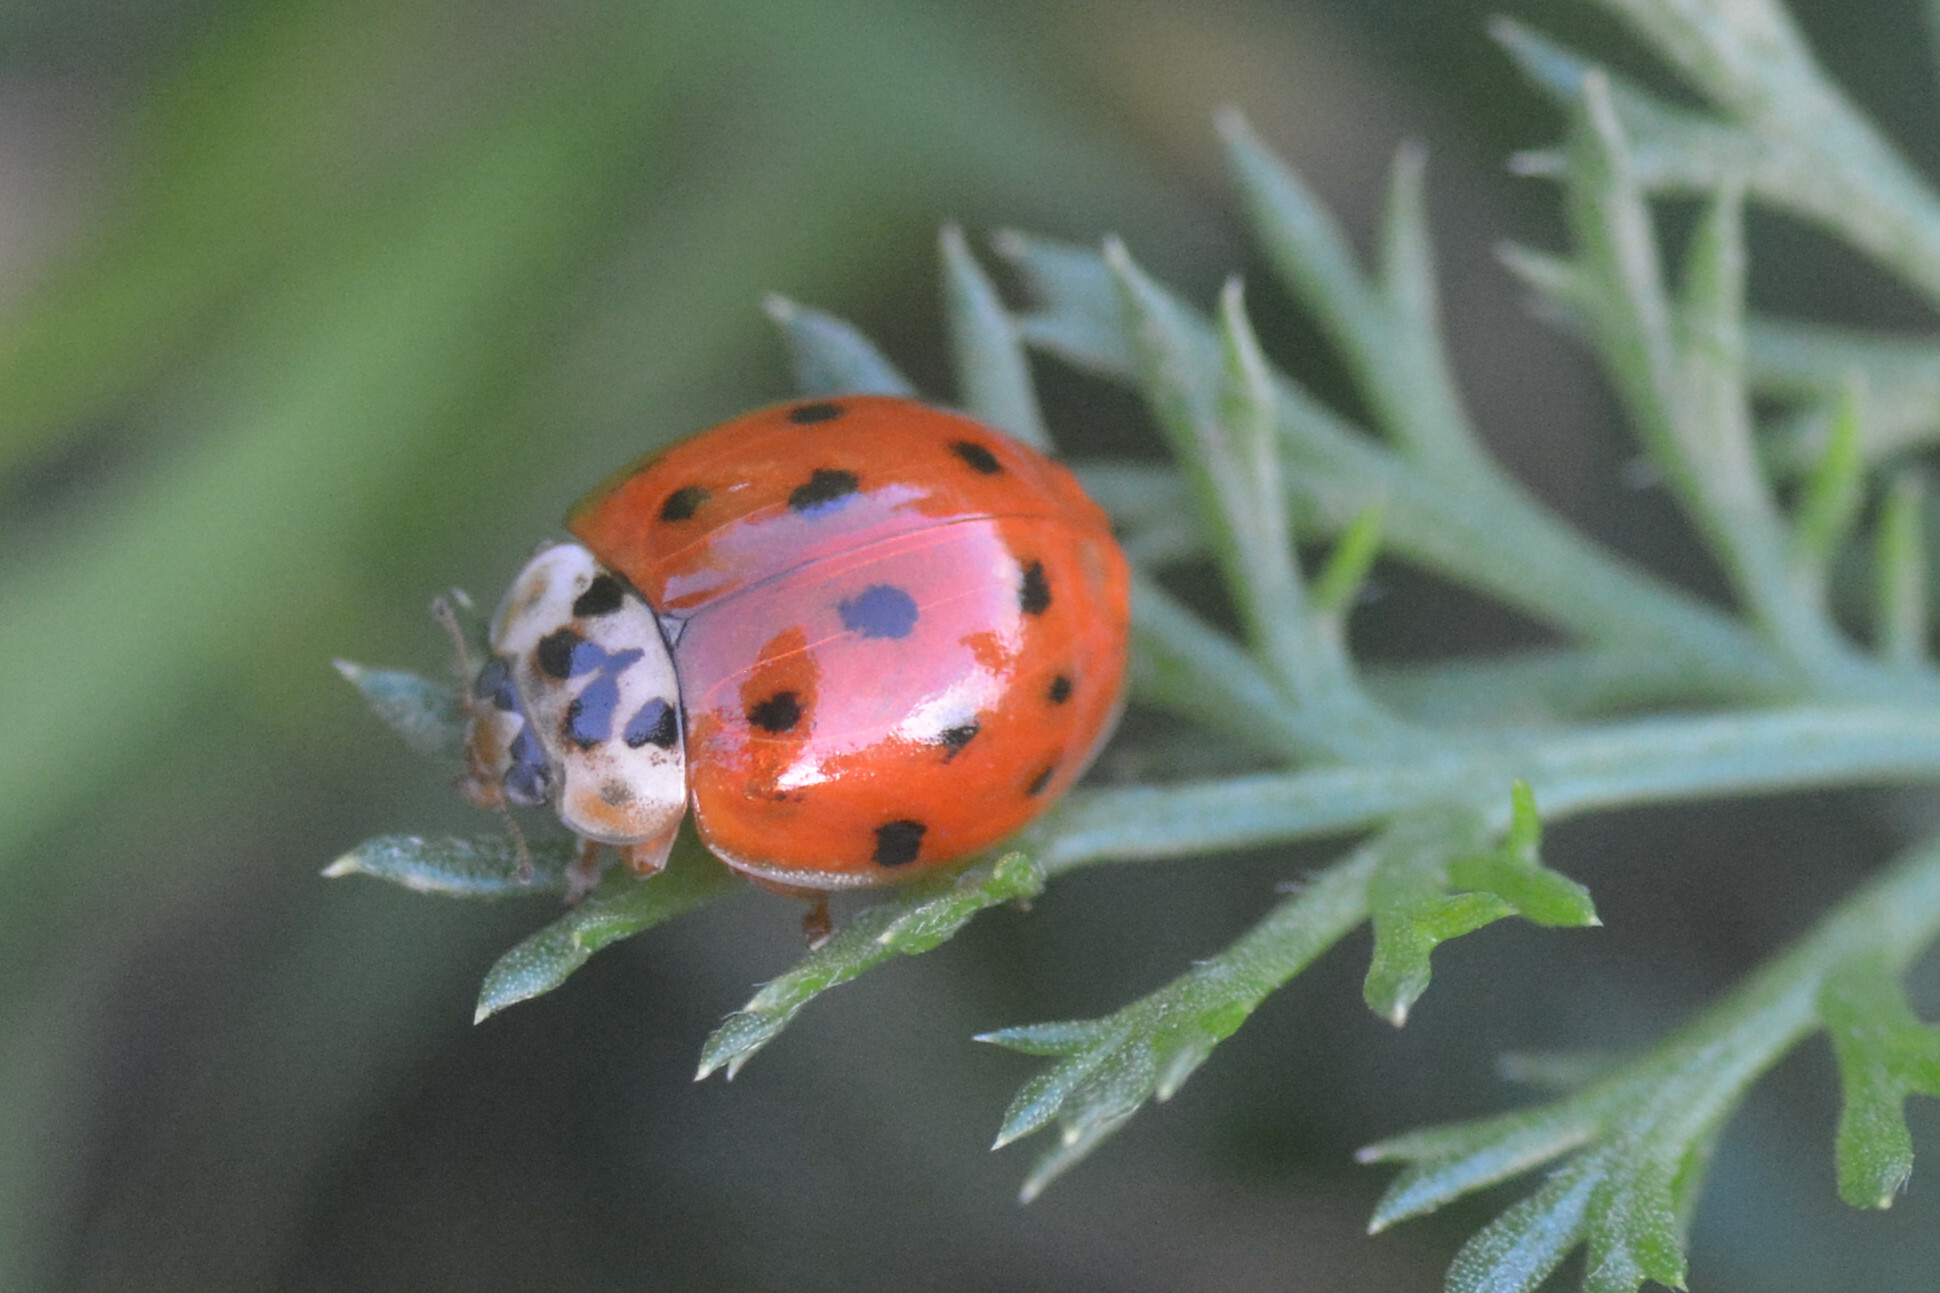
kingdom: Animalia
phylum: Arthropoda
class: Insecta
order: Coleoptera
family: Coccinellidae
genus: Harmonia
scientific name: Harmonia axyridis
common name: Harlequin ladybird
